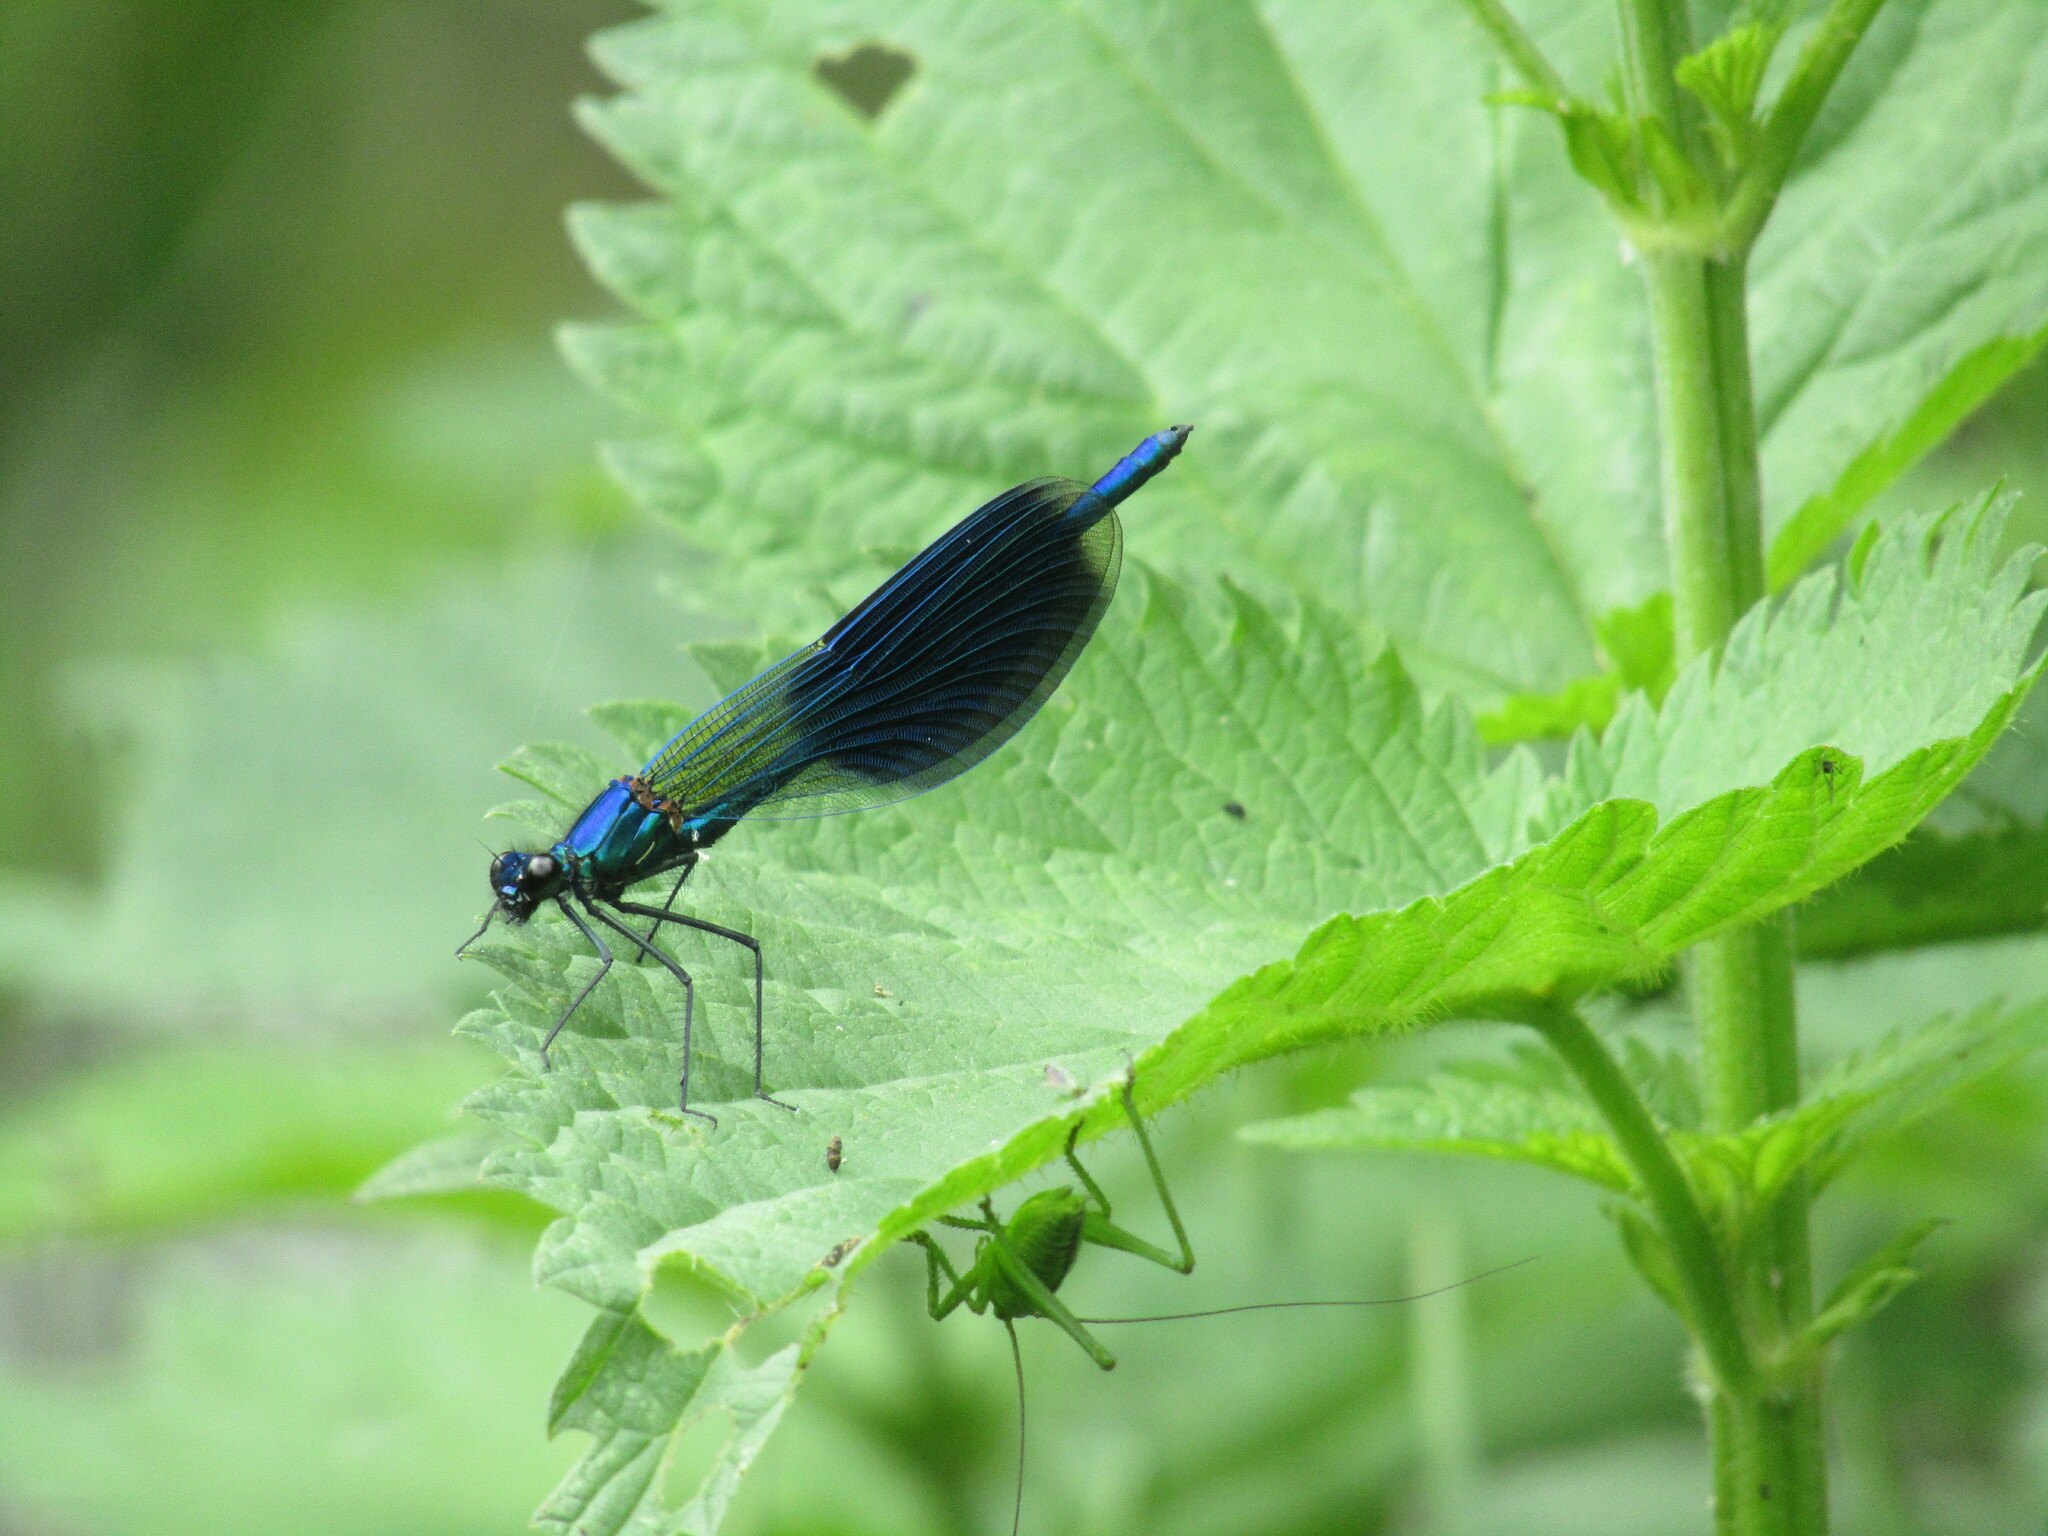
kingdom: Animalia
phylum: Arthropoda
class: Insecta
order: Odonata
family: Calopterygidae
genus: Calopteryx
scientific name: Calopteryx splendens
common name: Banded demoiselle
